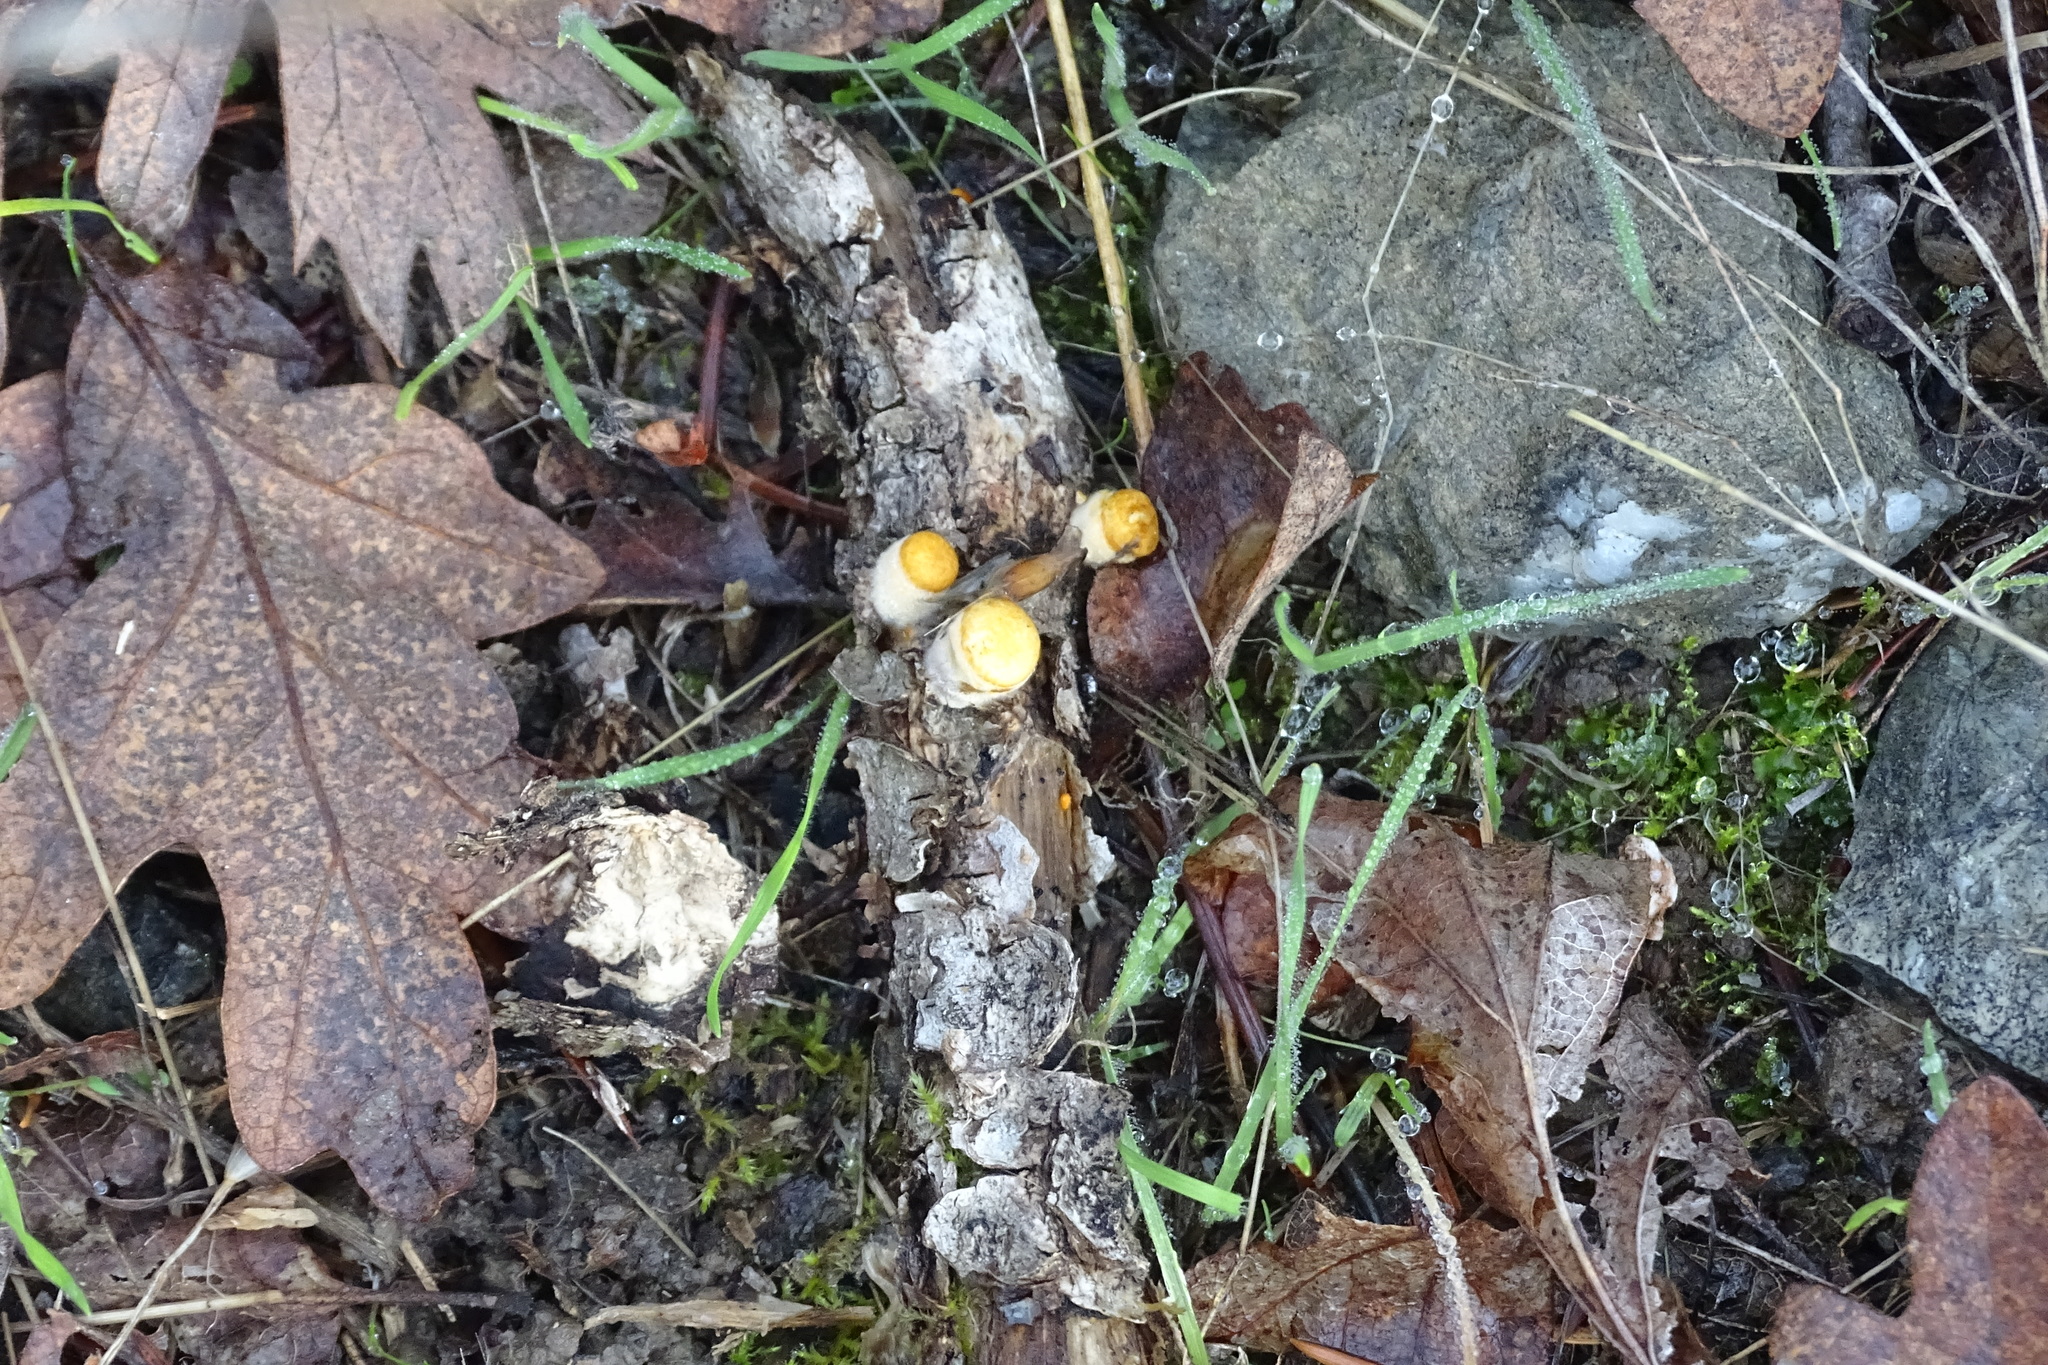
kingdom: Fungi
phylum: Basidiomycota
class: Agaricomycetes
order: Agaricales
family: Nidulariaceae
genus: Crucibulum
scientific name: Crucibulum laeve
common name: Common bird's nest
